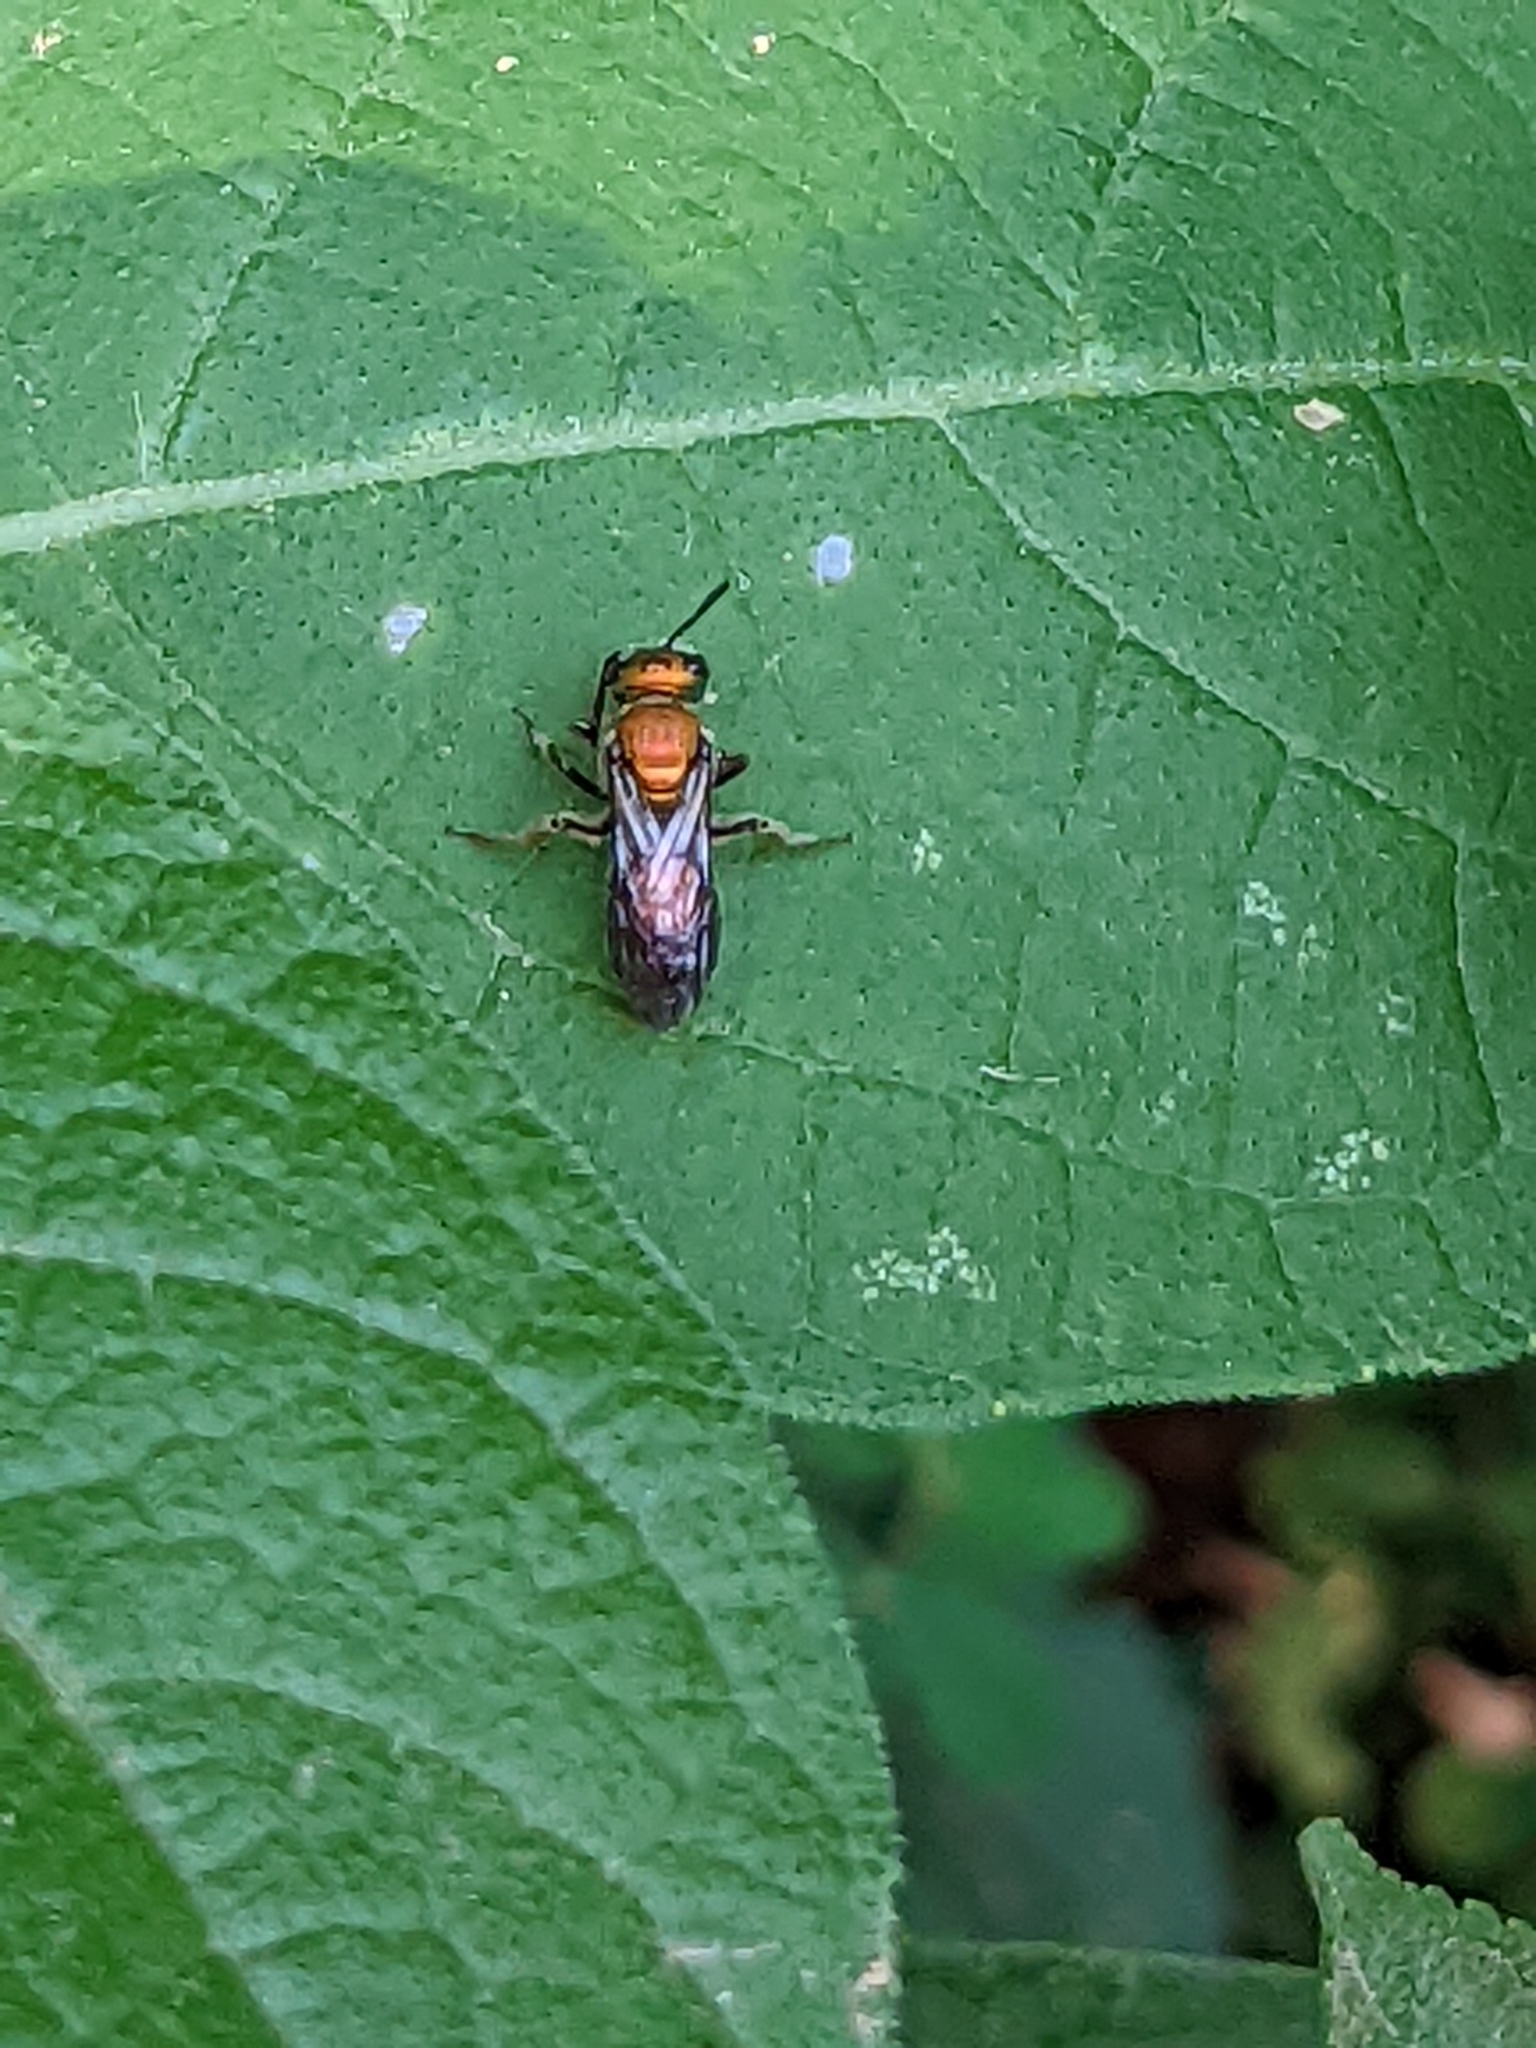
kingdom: Animalia
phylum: Arthropoda
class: Insecta
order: Hymenoptera
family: Halictidae
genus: Augochlora
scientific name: Augochlora pura
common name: Pure green sweat bee
